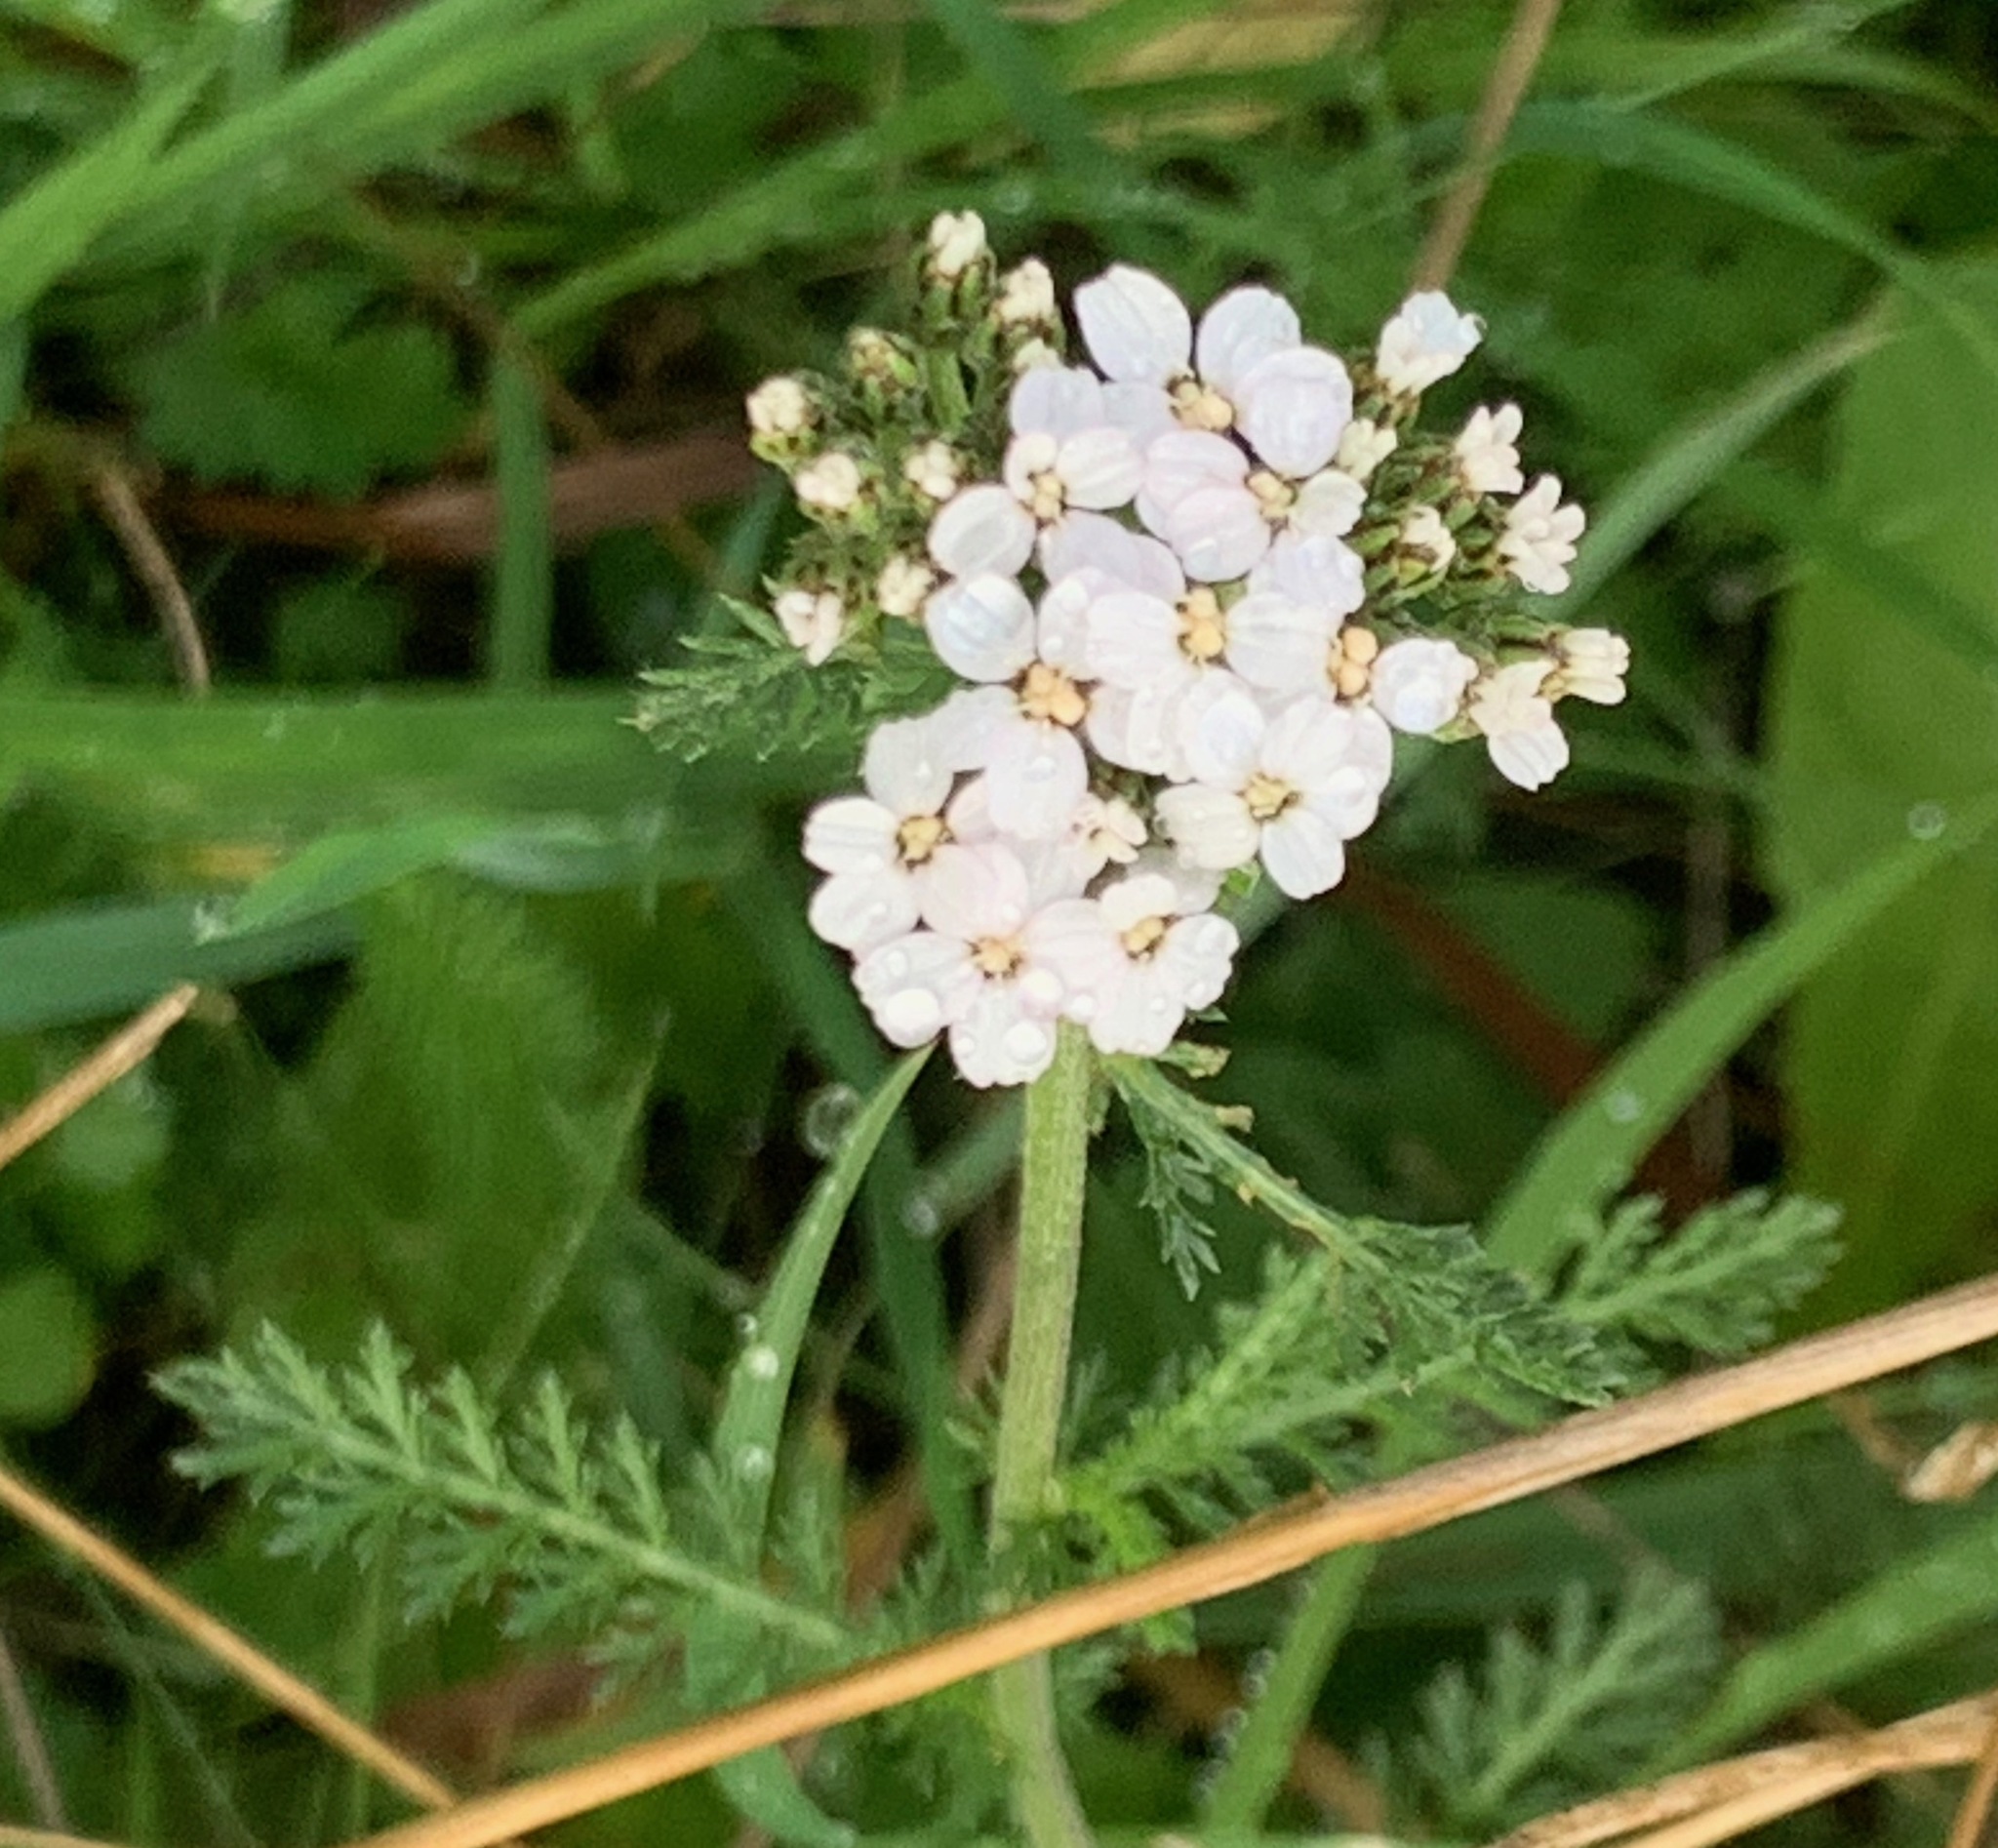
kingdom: Plantae
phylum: Tracheophyta
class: Magnoliopsida
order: Asterales
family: Asteraceae
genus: Achillea
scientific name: Achillea millefolium
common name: Yarrow
